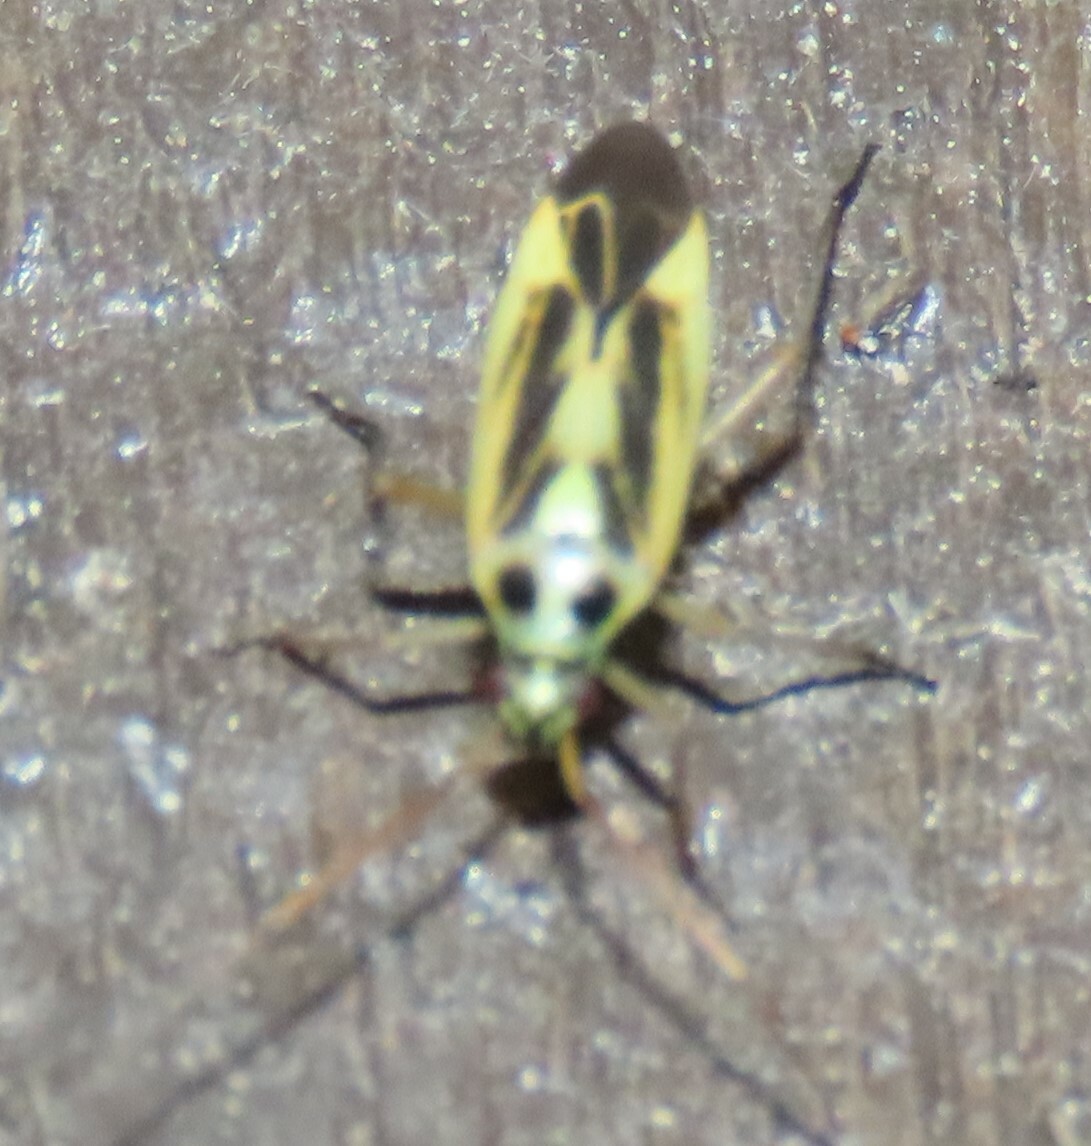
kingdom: Animalia
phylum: Arthropoda
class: Insecta
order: Hemiptera
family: Miridae
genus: Stenotus
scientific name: Stenotus binotatus
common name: Plant bug
